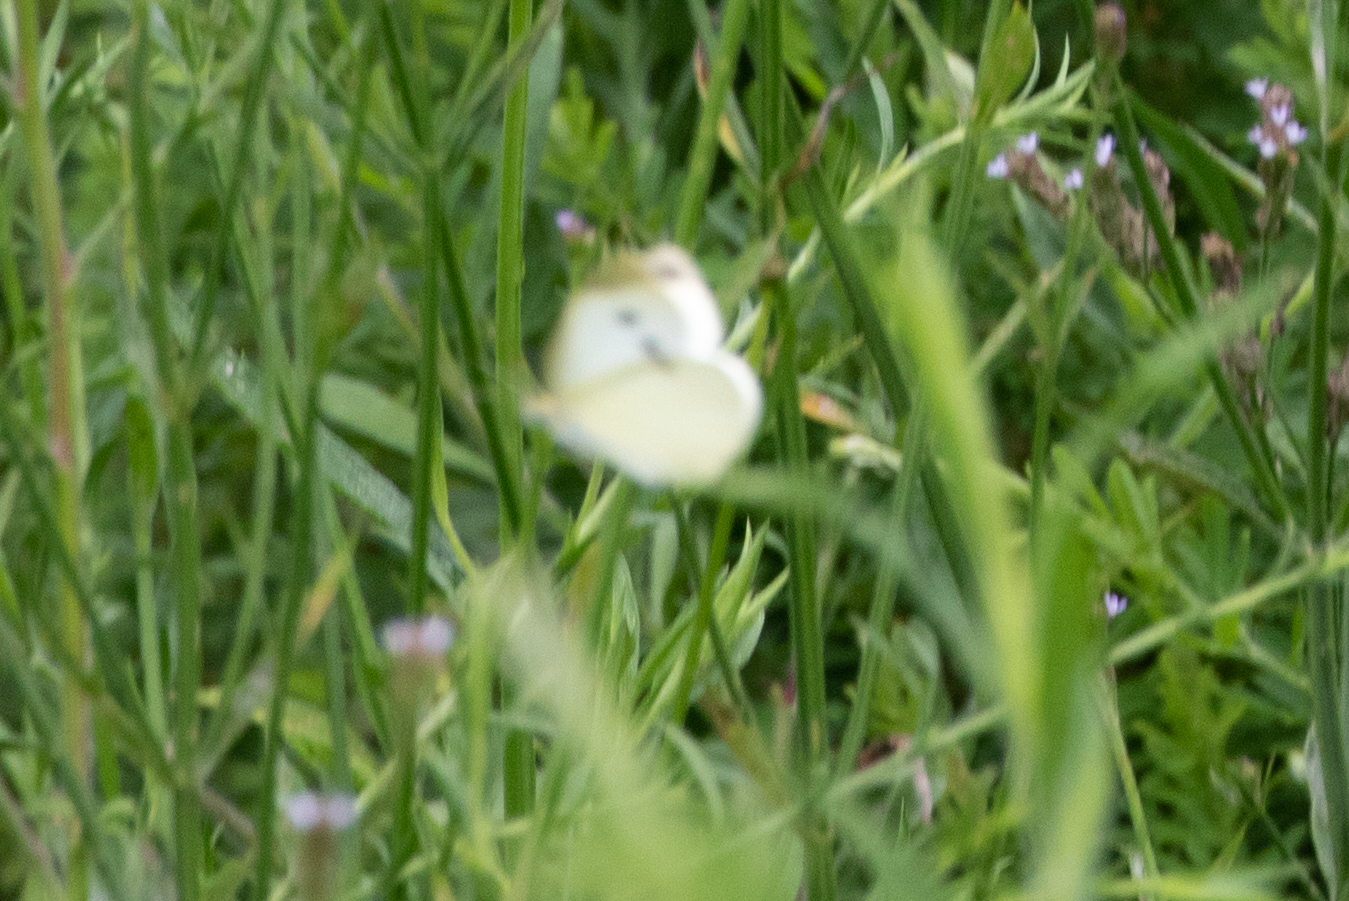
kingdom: Animalia
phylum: Arthropoda
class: Insecta
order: Lepidoptera
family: Pieridae
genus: Pieris
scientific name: Pieris rapae
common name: Small white
